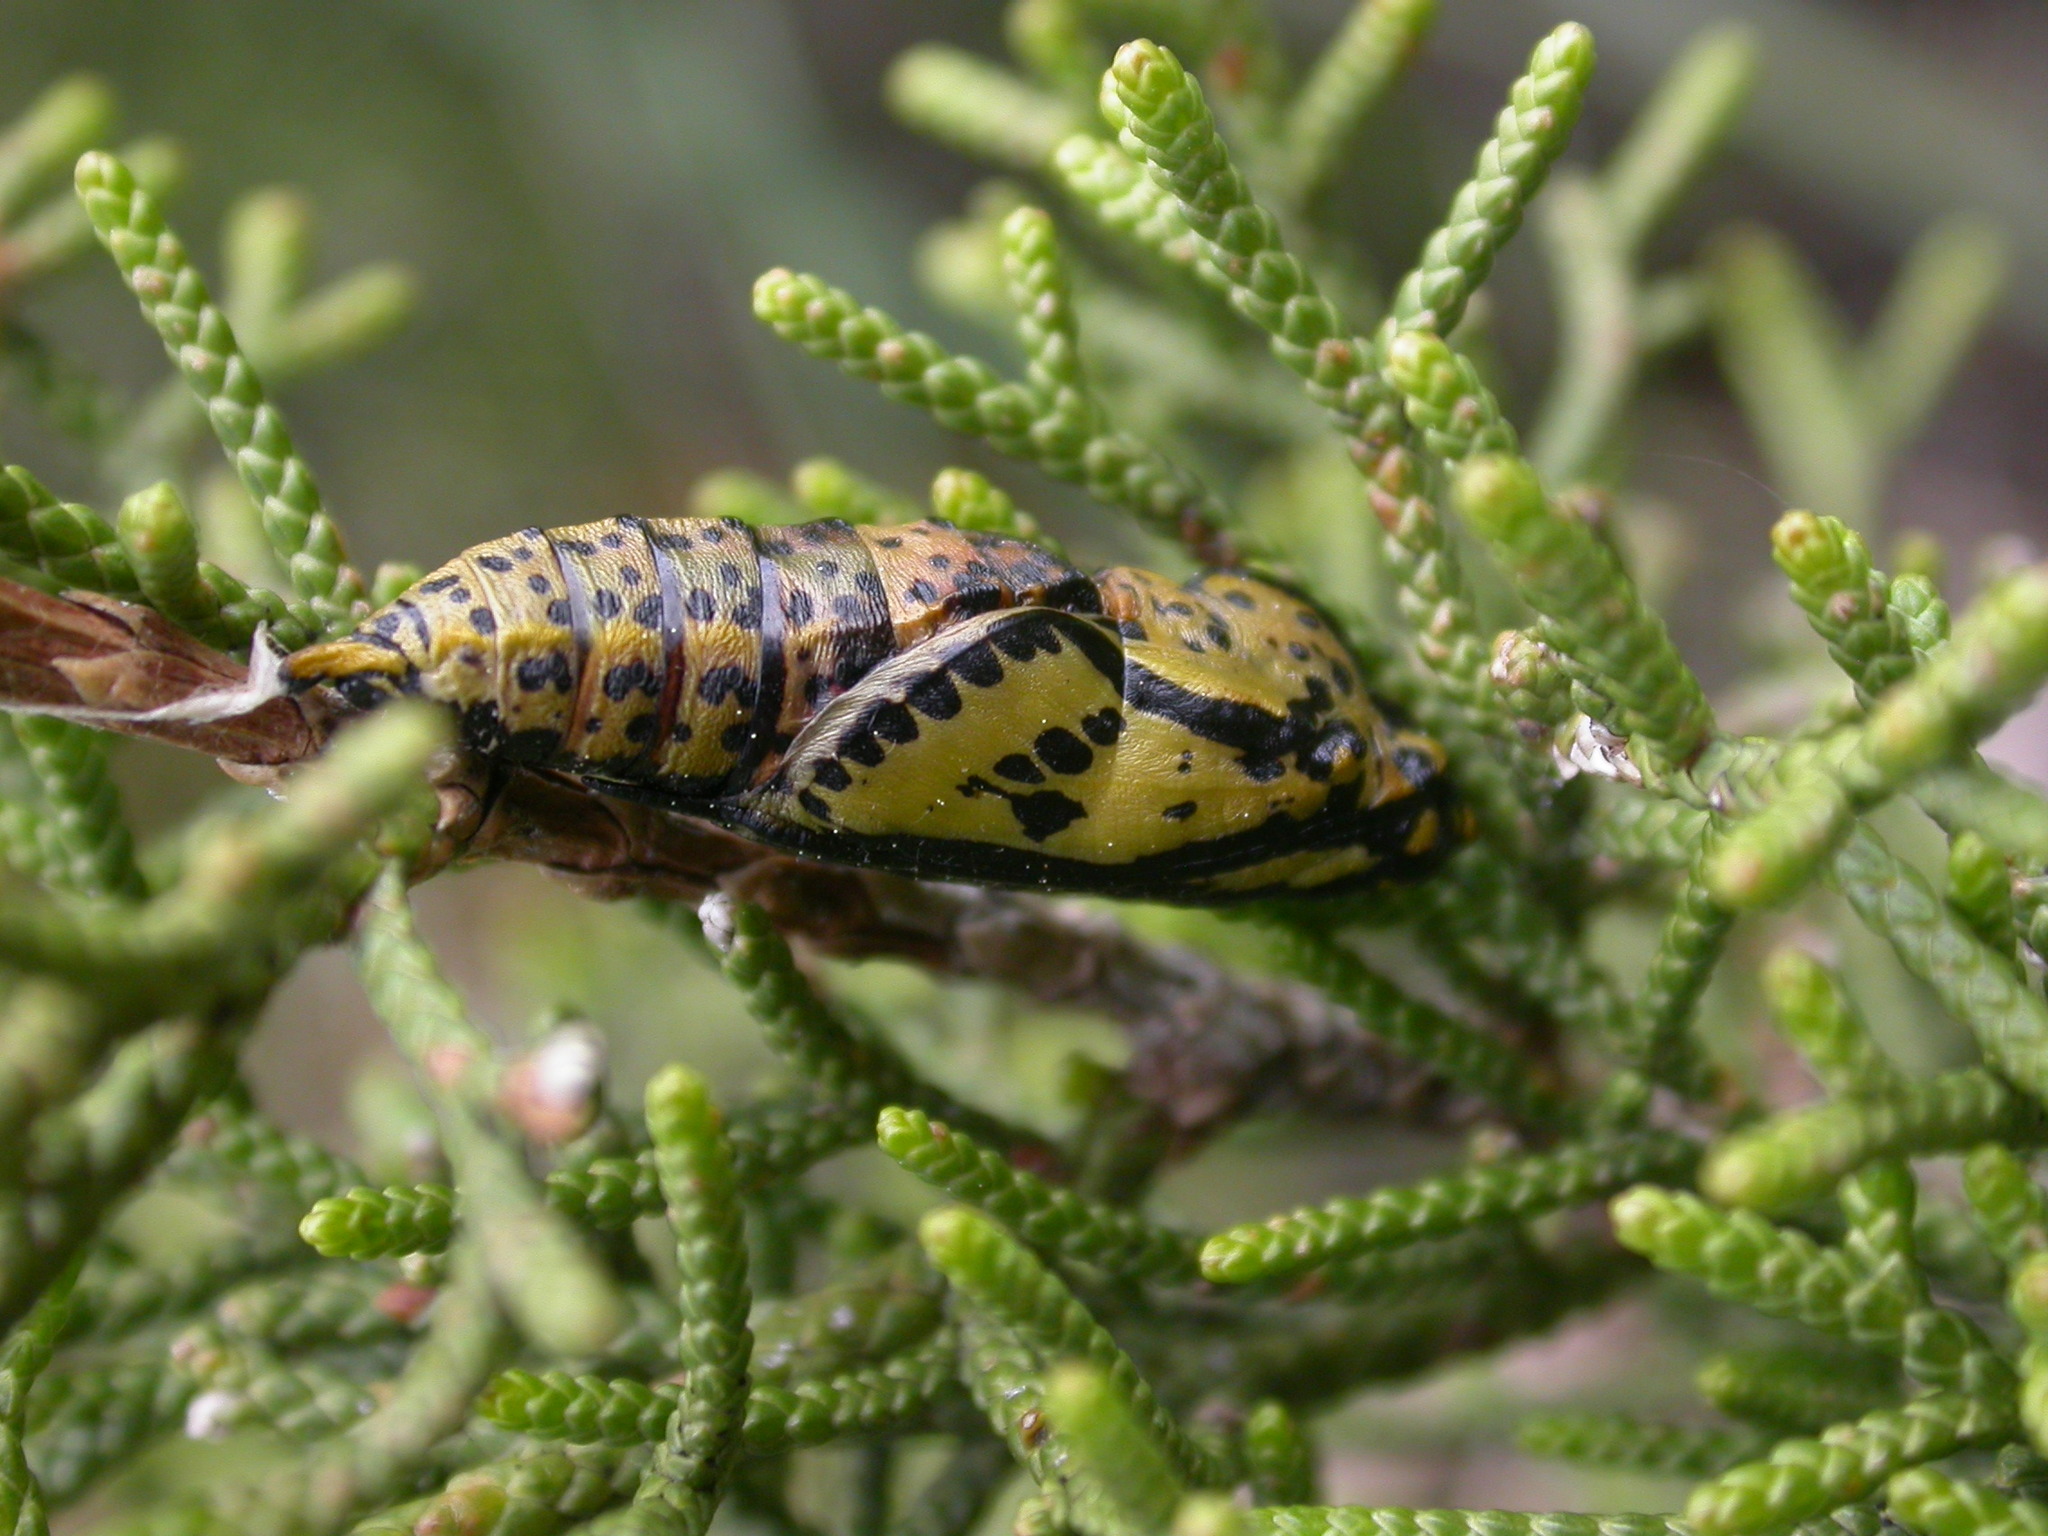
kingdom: Animalia
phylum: Arthropoda
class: Insecta
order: Lepidoptera
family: Pieridae
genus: Aporia
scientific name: Aporia crataegi
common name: Black-veined white
